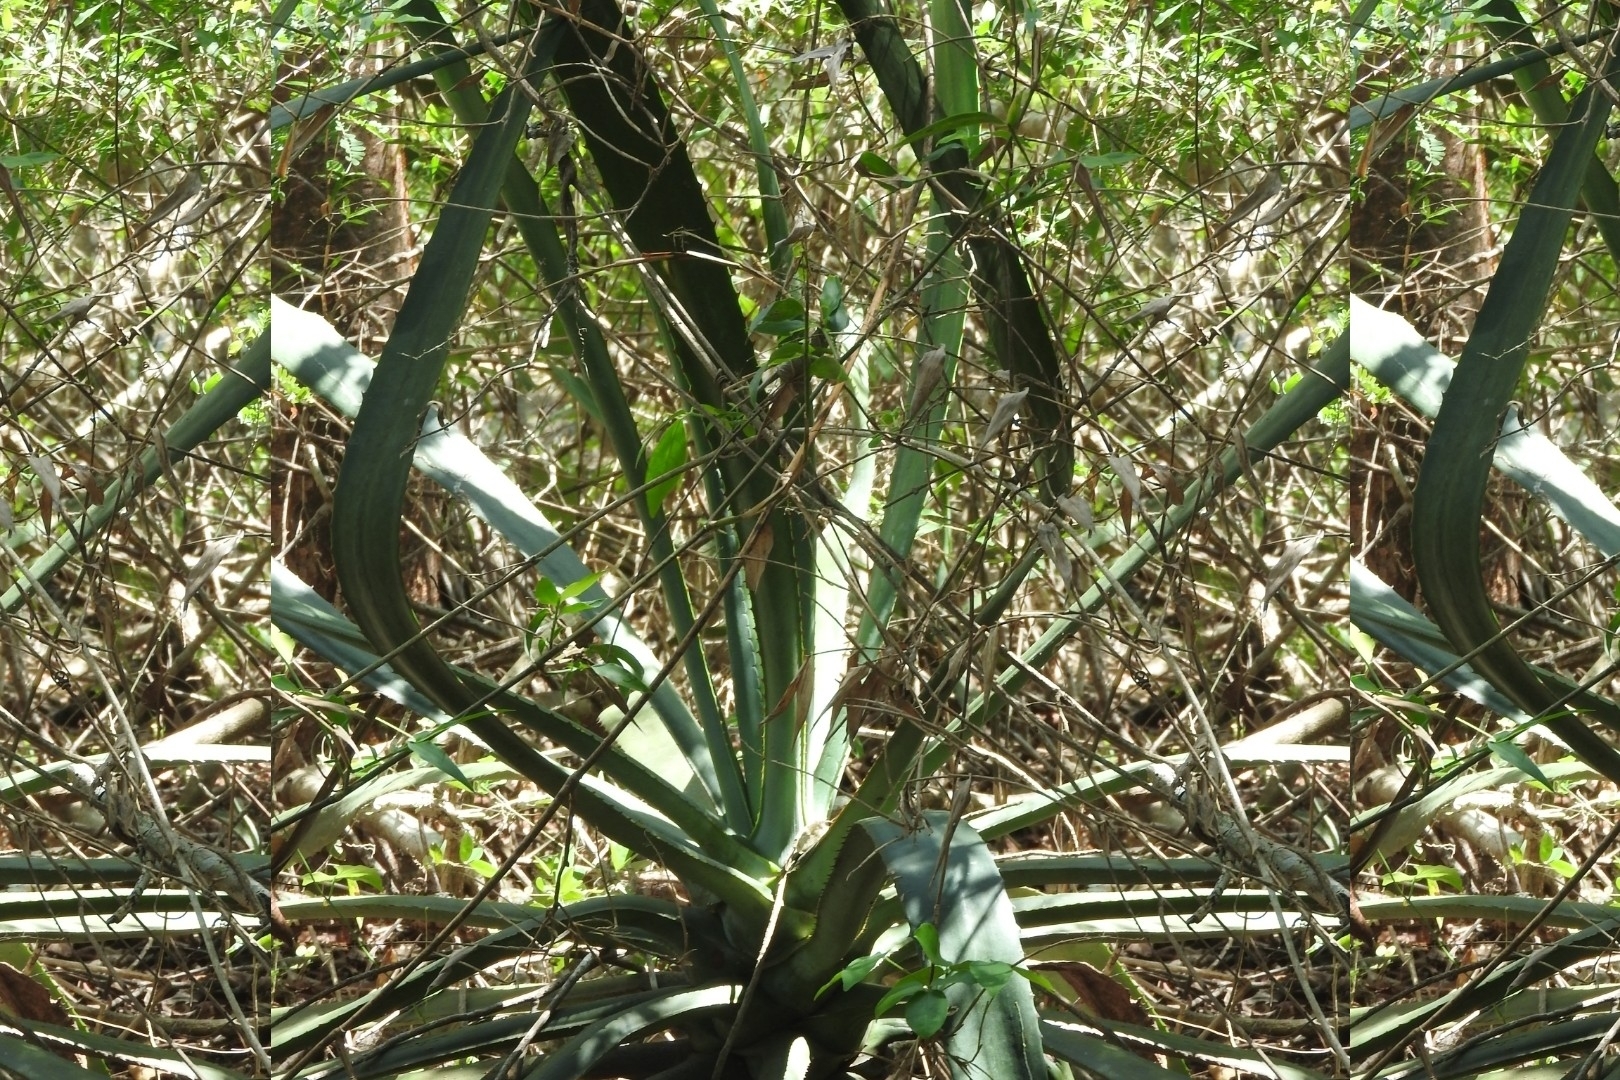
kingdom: Plantae
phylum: Tracheophyta
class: Liliopsida
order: Asparagales
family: Asparagaceae
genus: Agave
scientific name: Agave angustifolia
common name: Mescal agave
